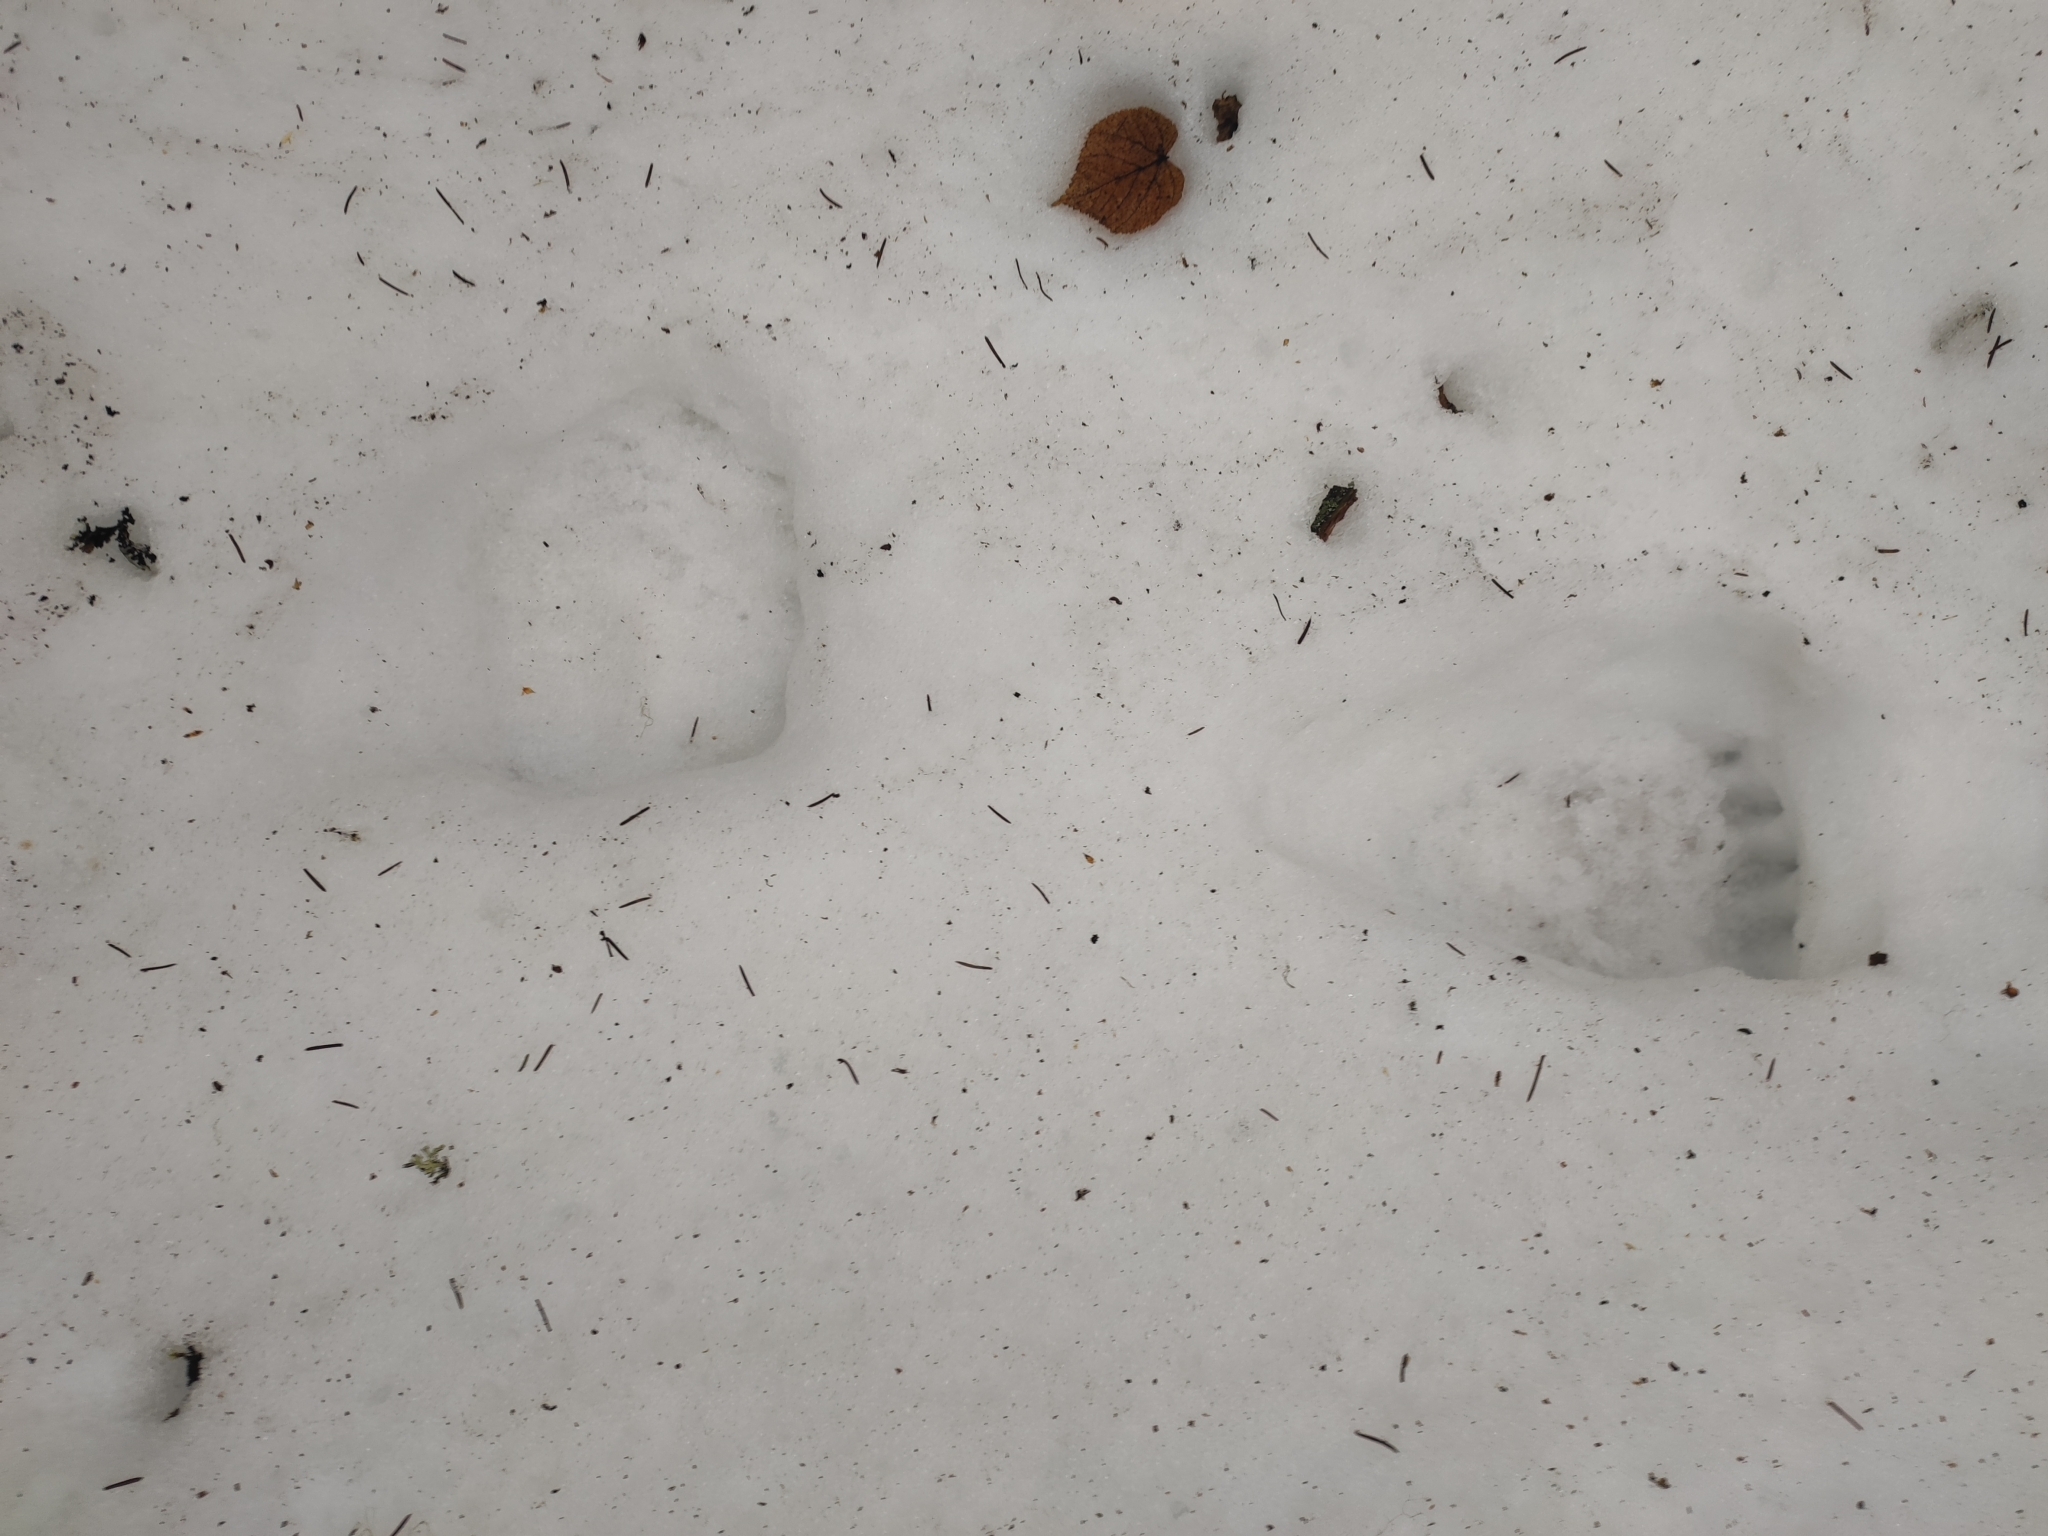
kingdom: Animalia
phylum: Chordata
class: Mammalia
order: Carnivora
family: Ursidae
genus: Ursus
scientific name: Ursus arctos
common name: Brown bear
